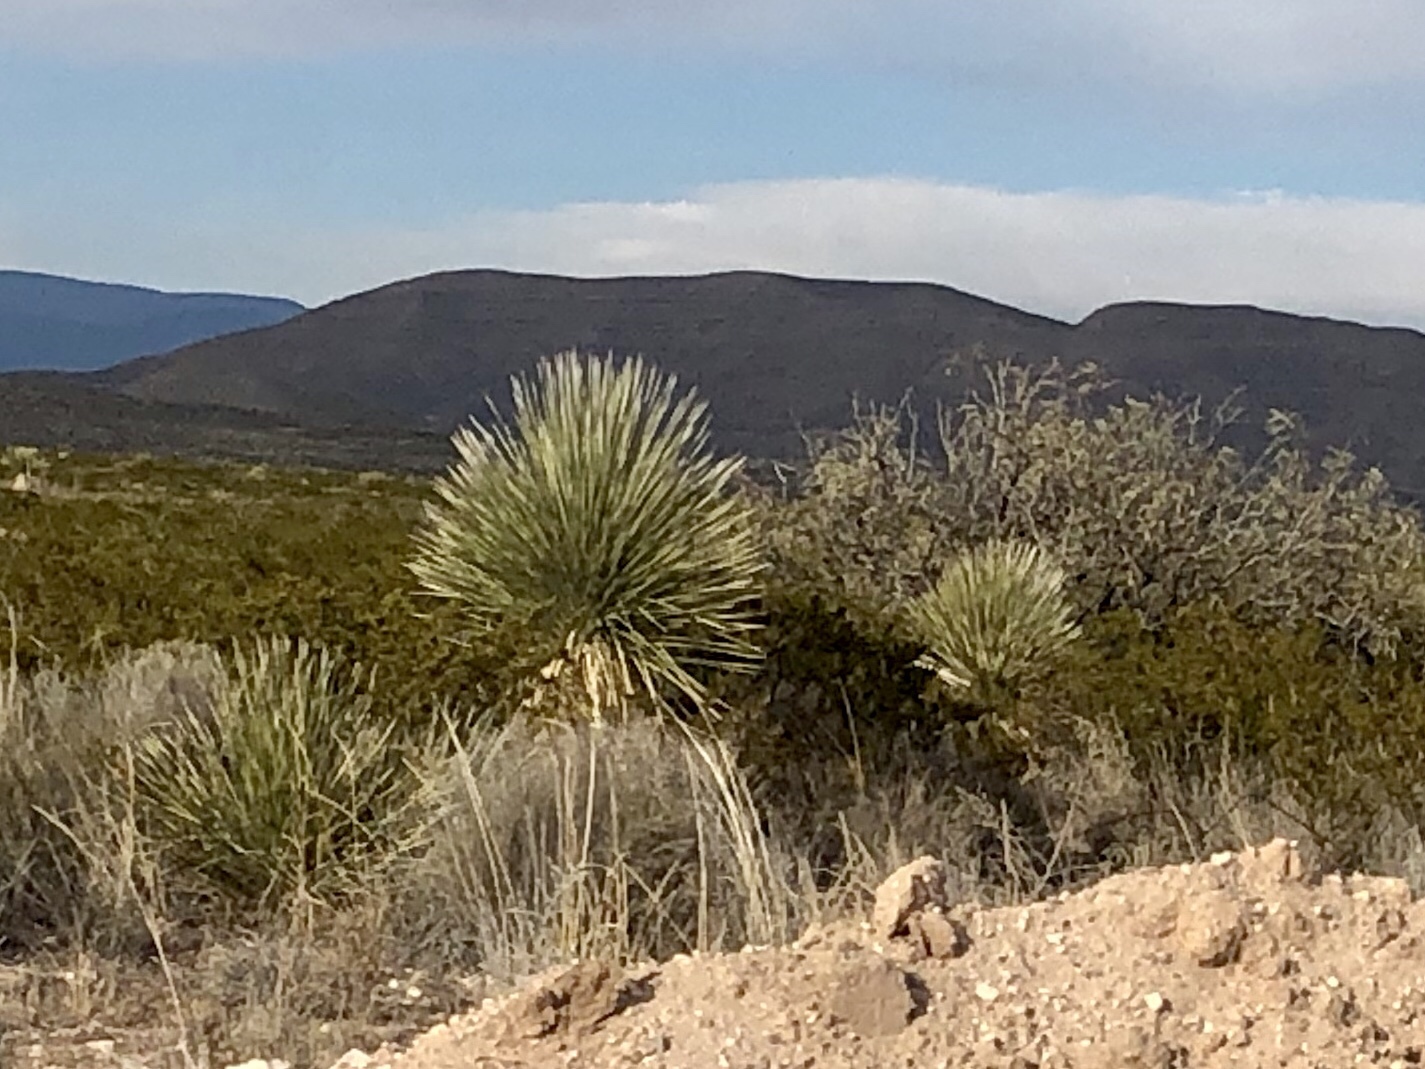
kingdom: Plantae
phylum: Tracheophyta
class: Liliopsida
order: Asparagales
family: Asparagaceae
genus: Yucca
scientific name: Yucca elata
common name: Palmella
